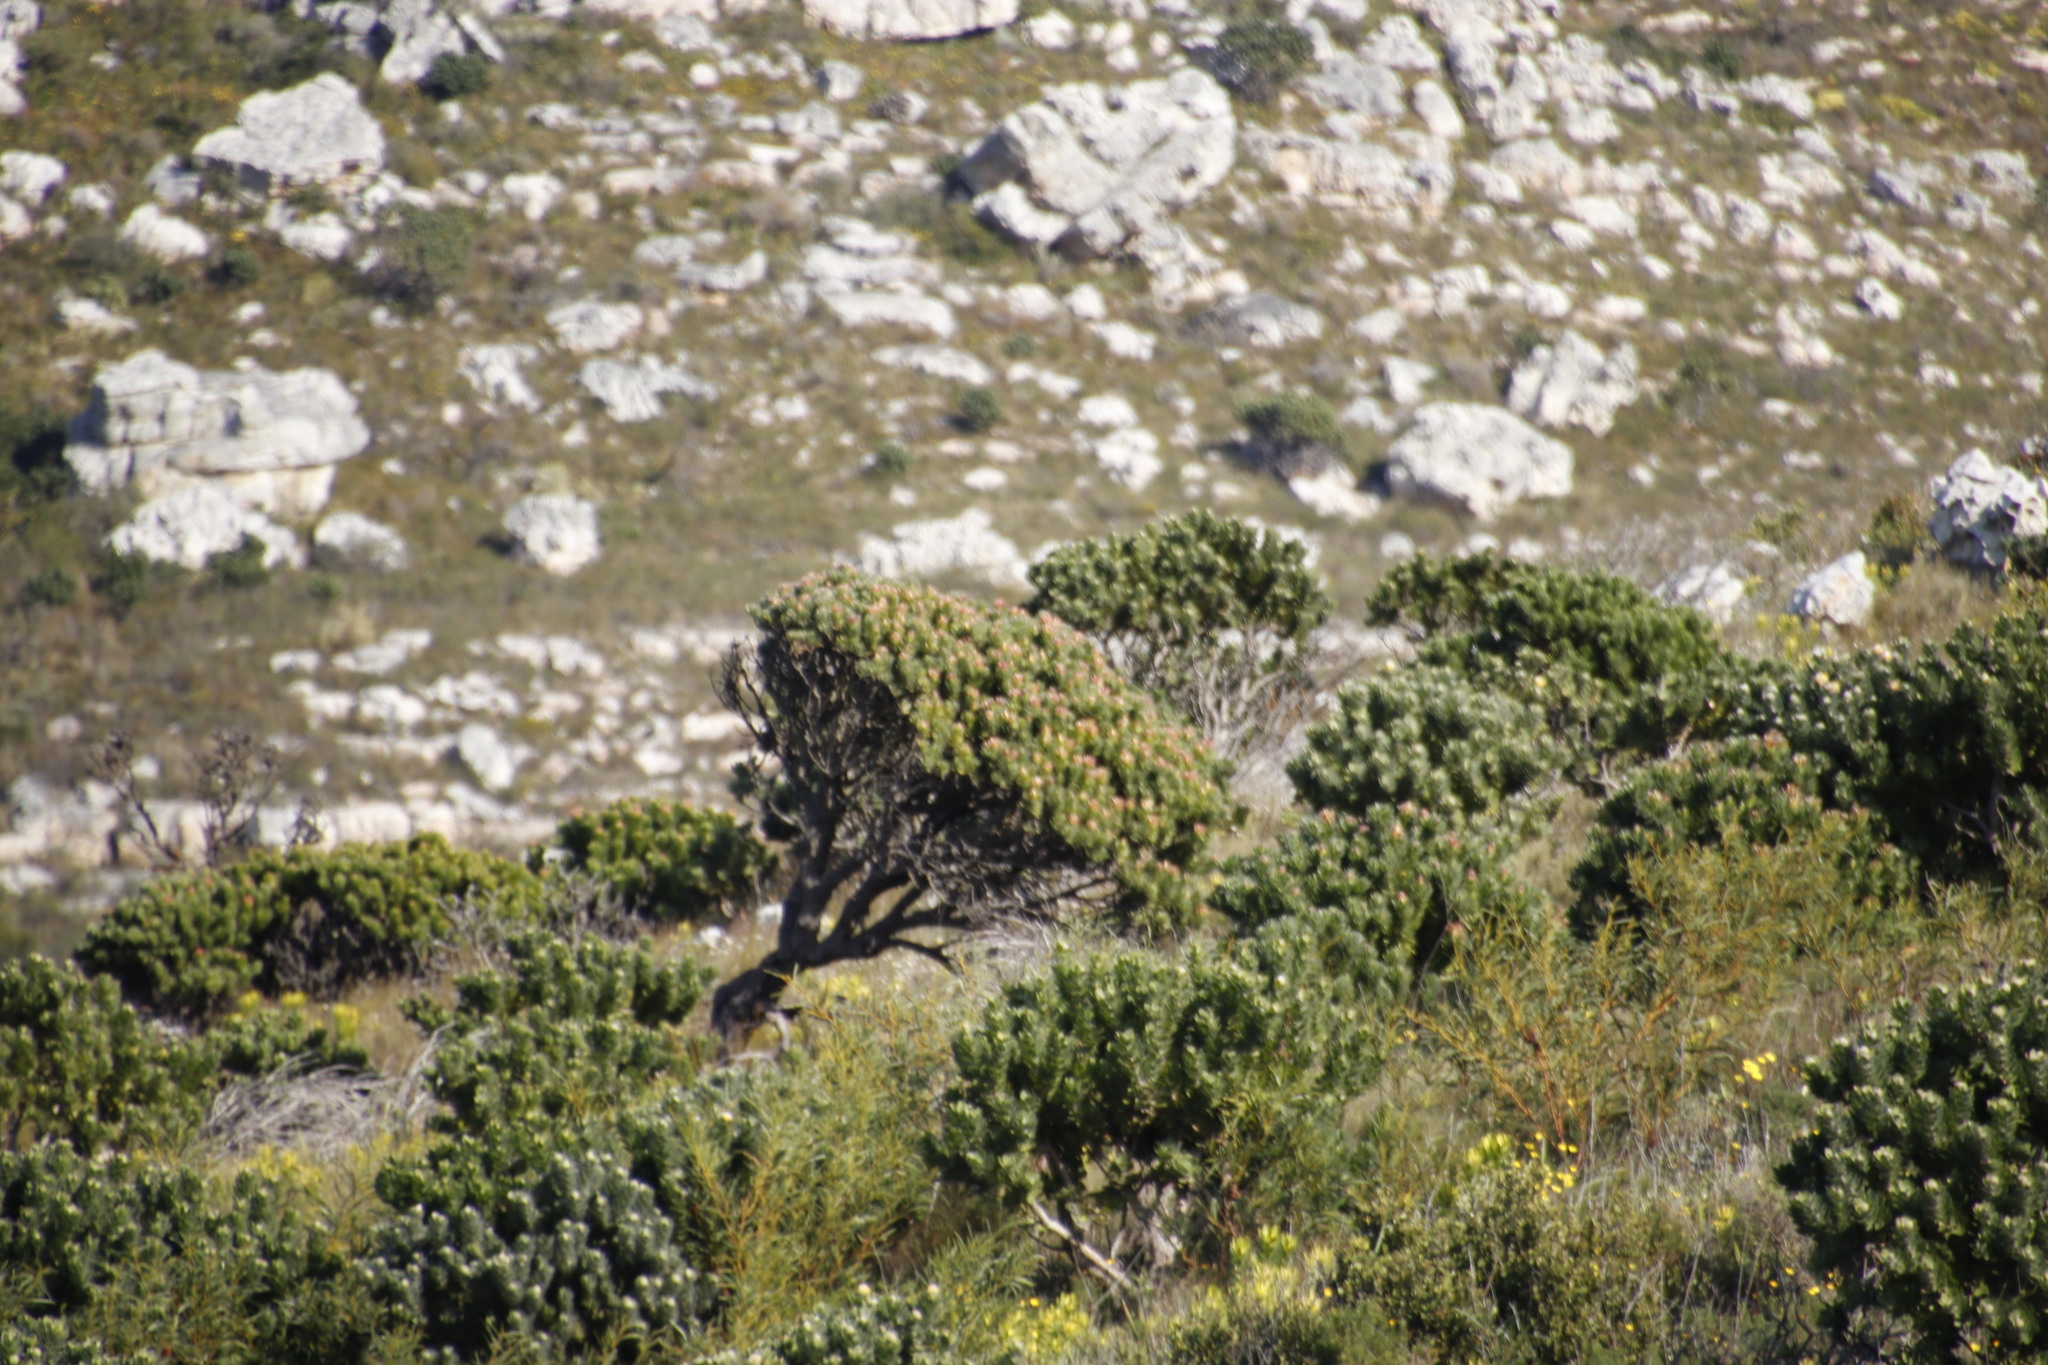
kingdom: Plantae
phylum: Tracheophyta
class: Magnoliopsida
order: Proteales
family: Proteaceae
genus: Mimetes
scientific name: Mimetes fimbriifolius
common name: Fringed bottlebrush
